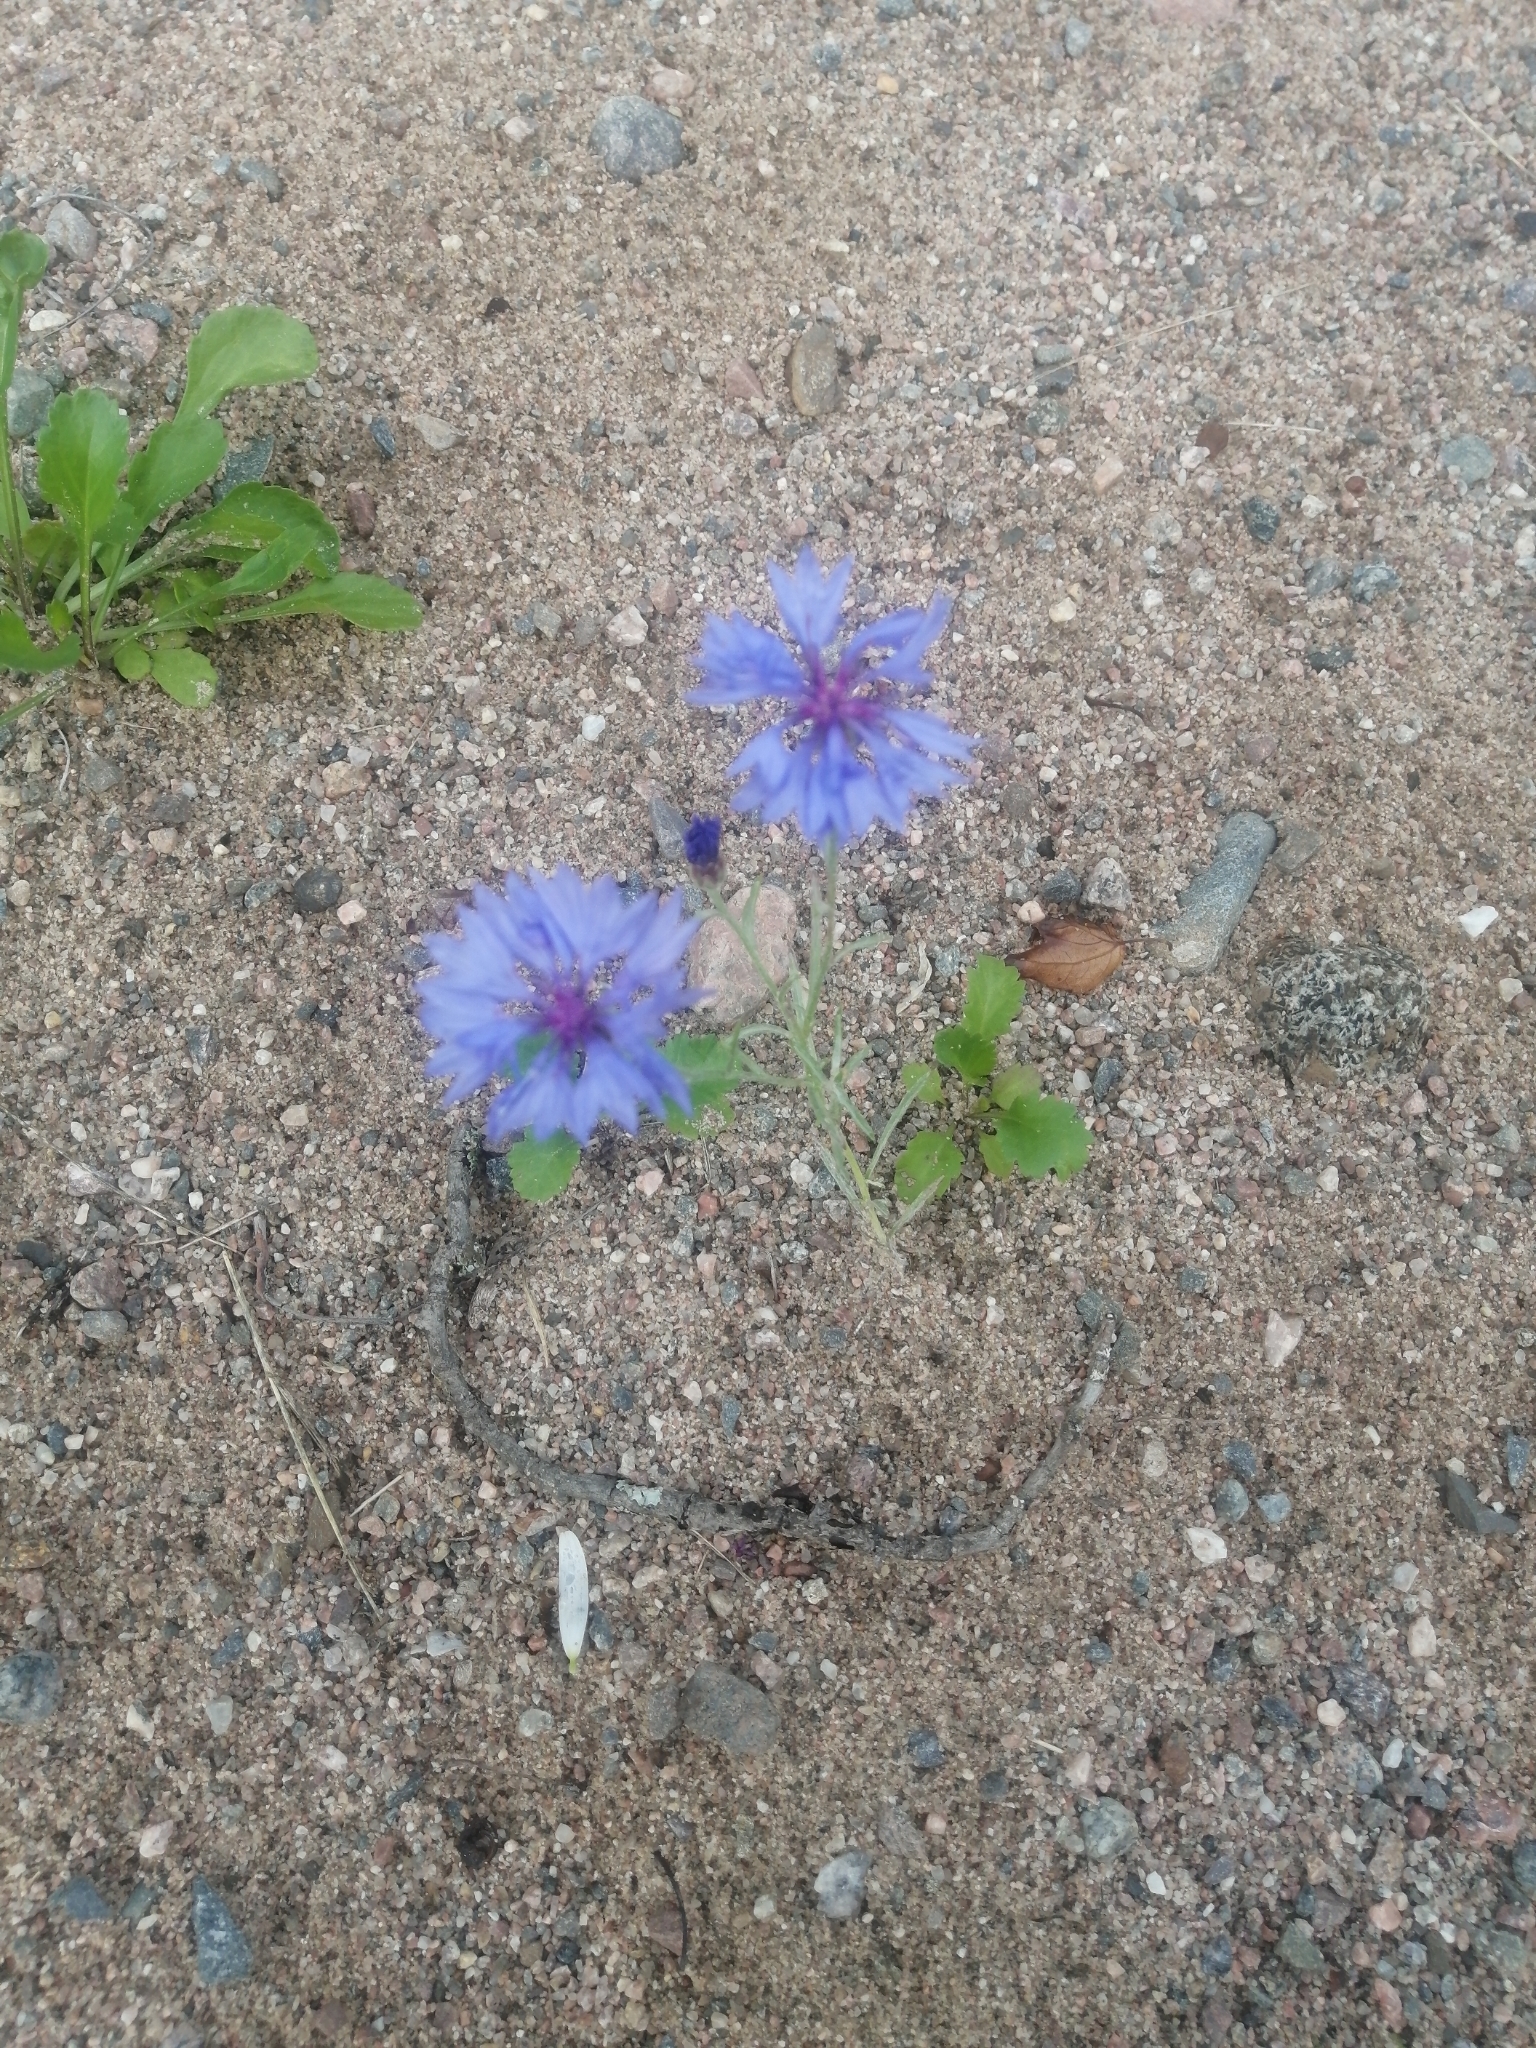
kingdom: Plantae
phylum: Tracheophyta
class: Magnoliopsida
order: Asterales
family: Asteraceae
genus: Centaurea
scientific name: Centaurea cyanus
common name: Cornflower
